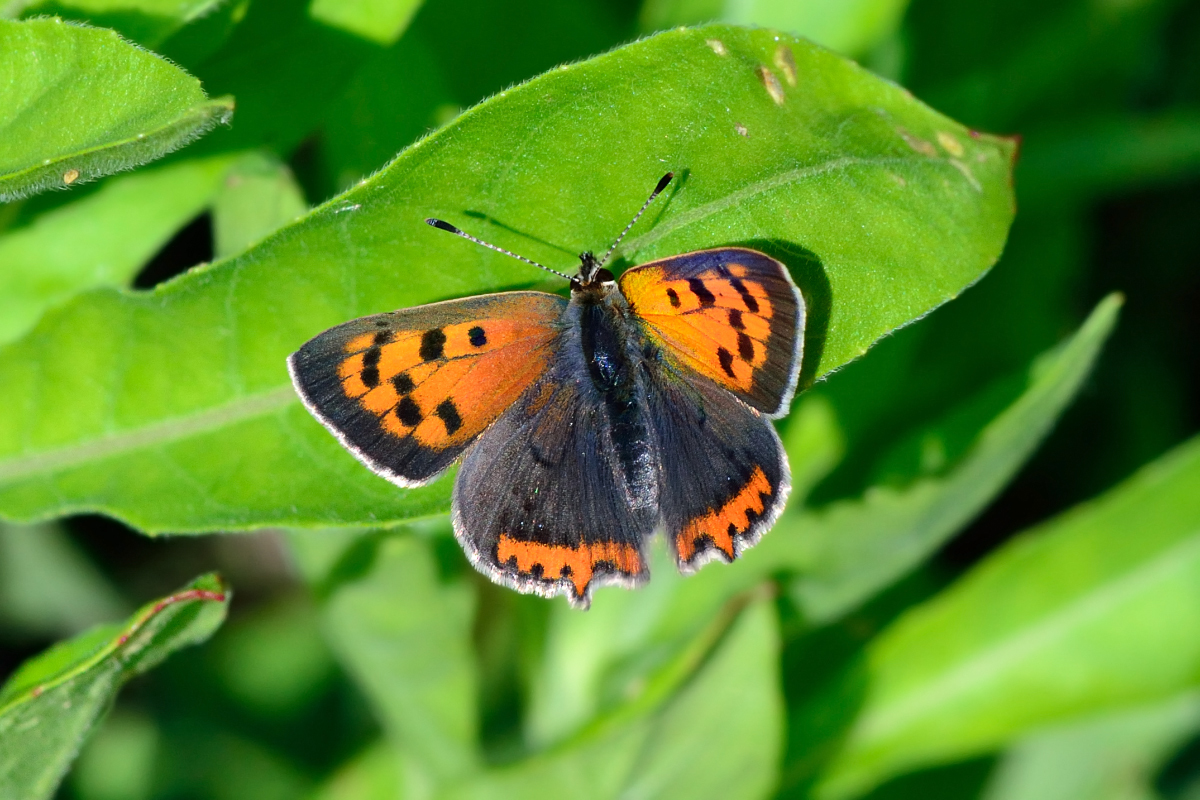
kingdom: Animalia
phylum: Arthropoda
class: Insecta
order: Lepidoptera
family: Lycaenidae
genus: Lycaena
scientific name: Lycaena phlaeas
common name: Small copper
